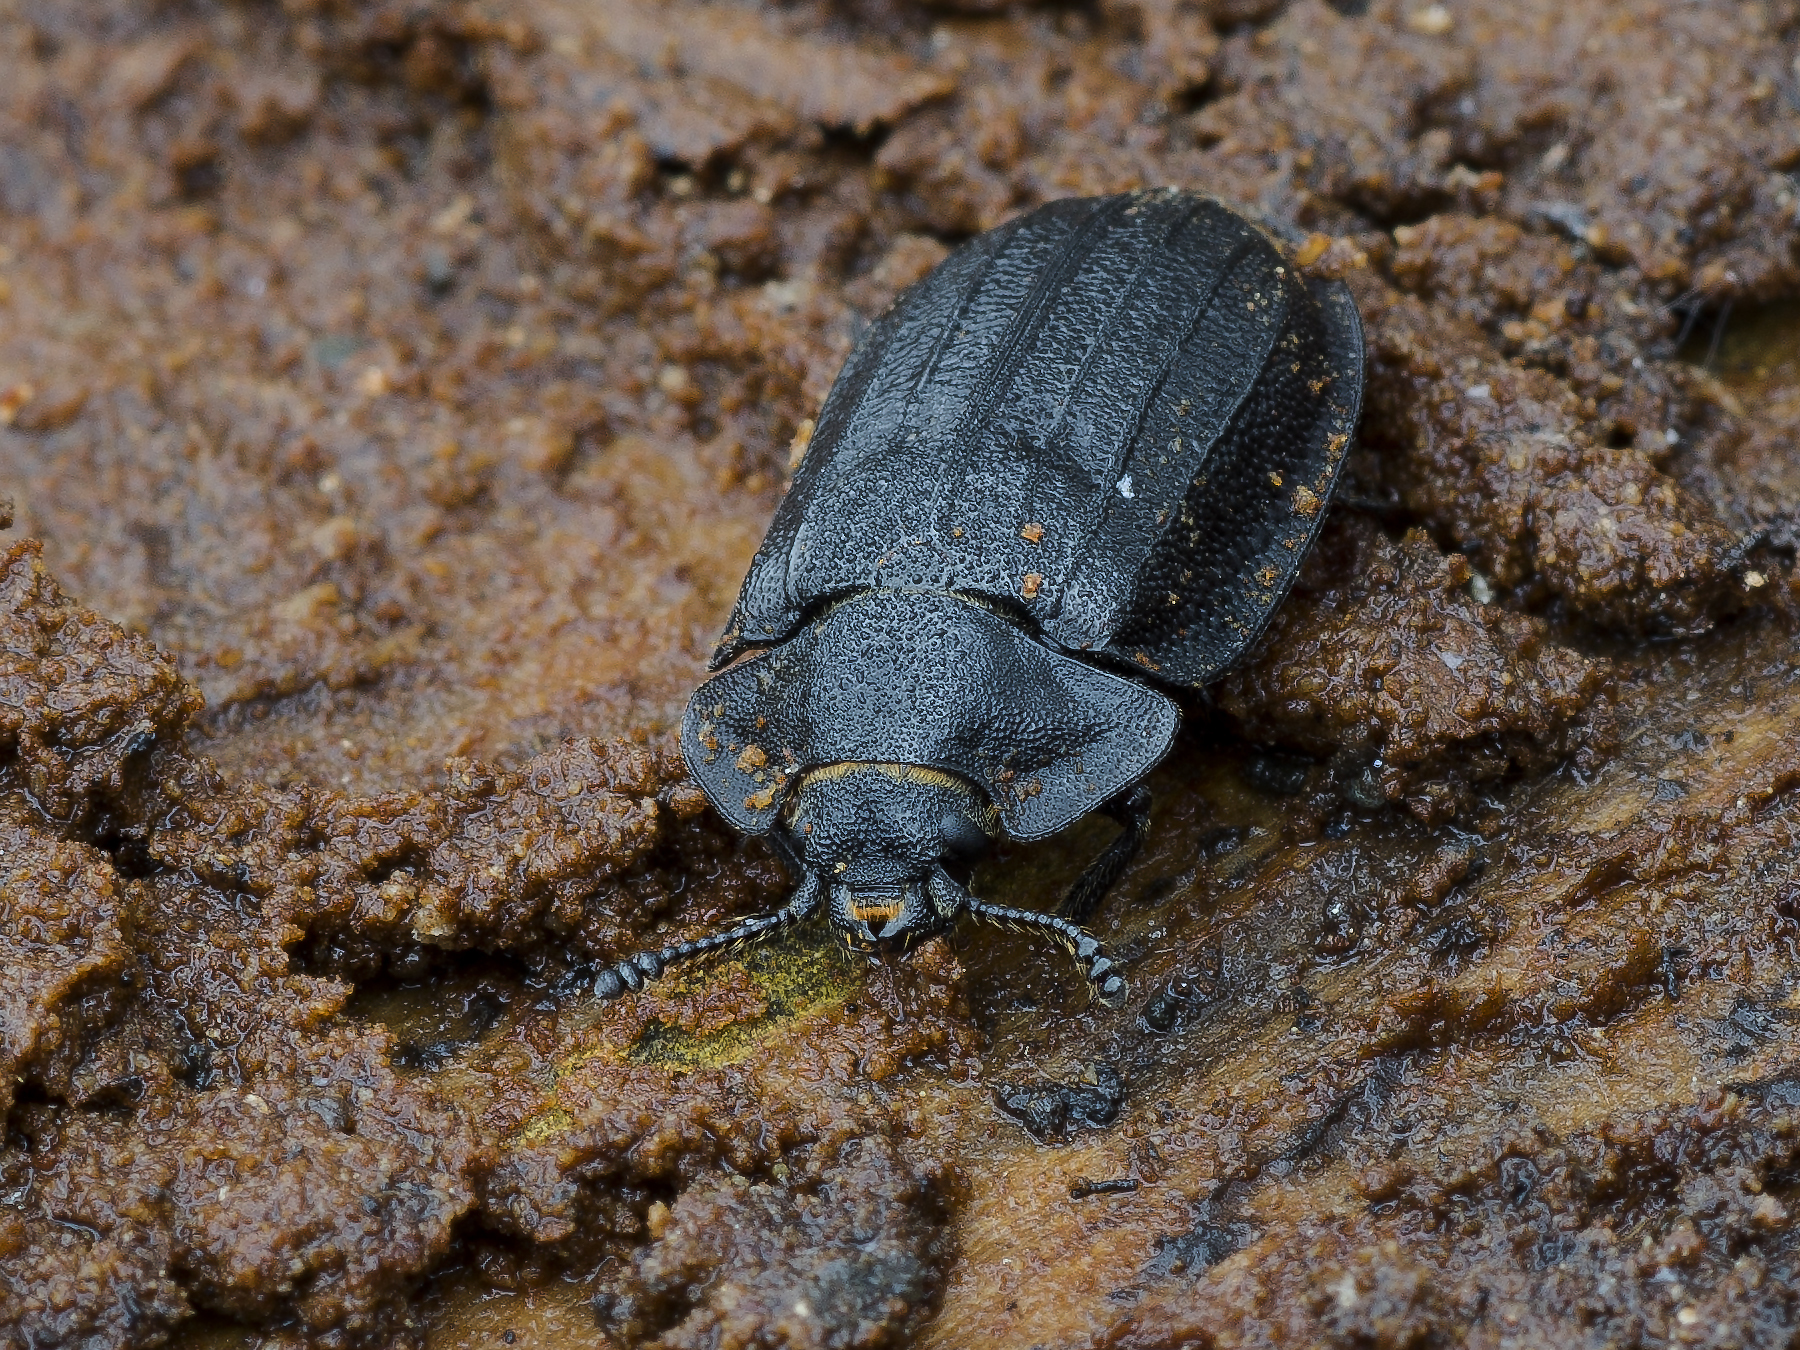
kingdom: Animalia
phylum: Arthropoda
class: Insecta
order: Coleoptera
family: Trogossitidae
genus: Peltis
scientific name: Peltis grossa
